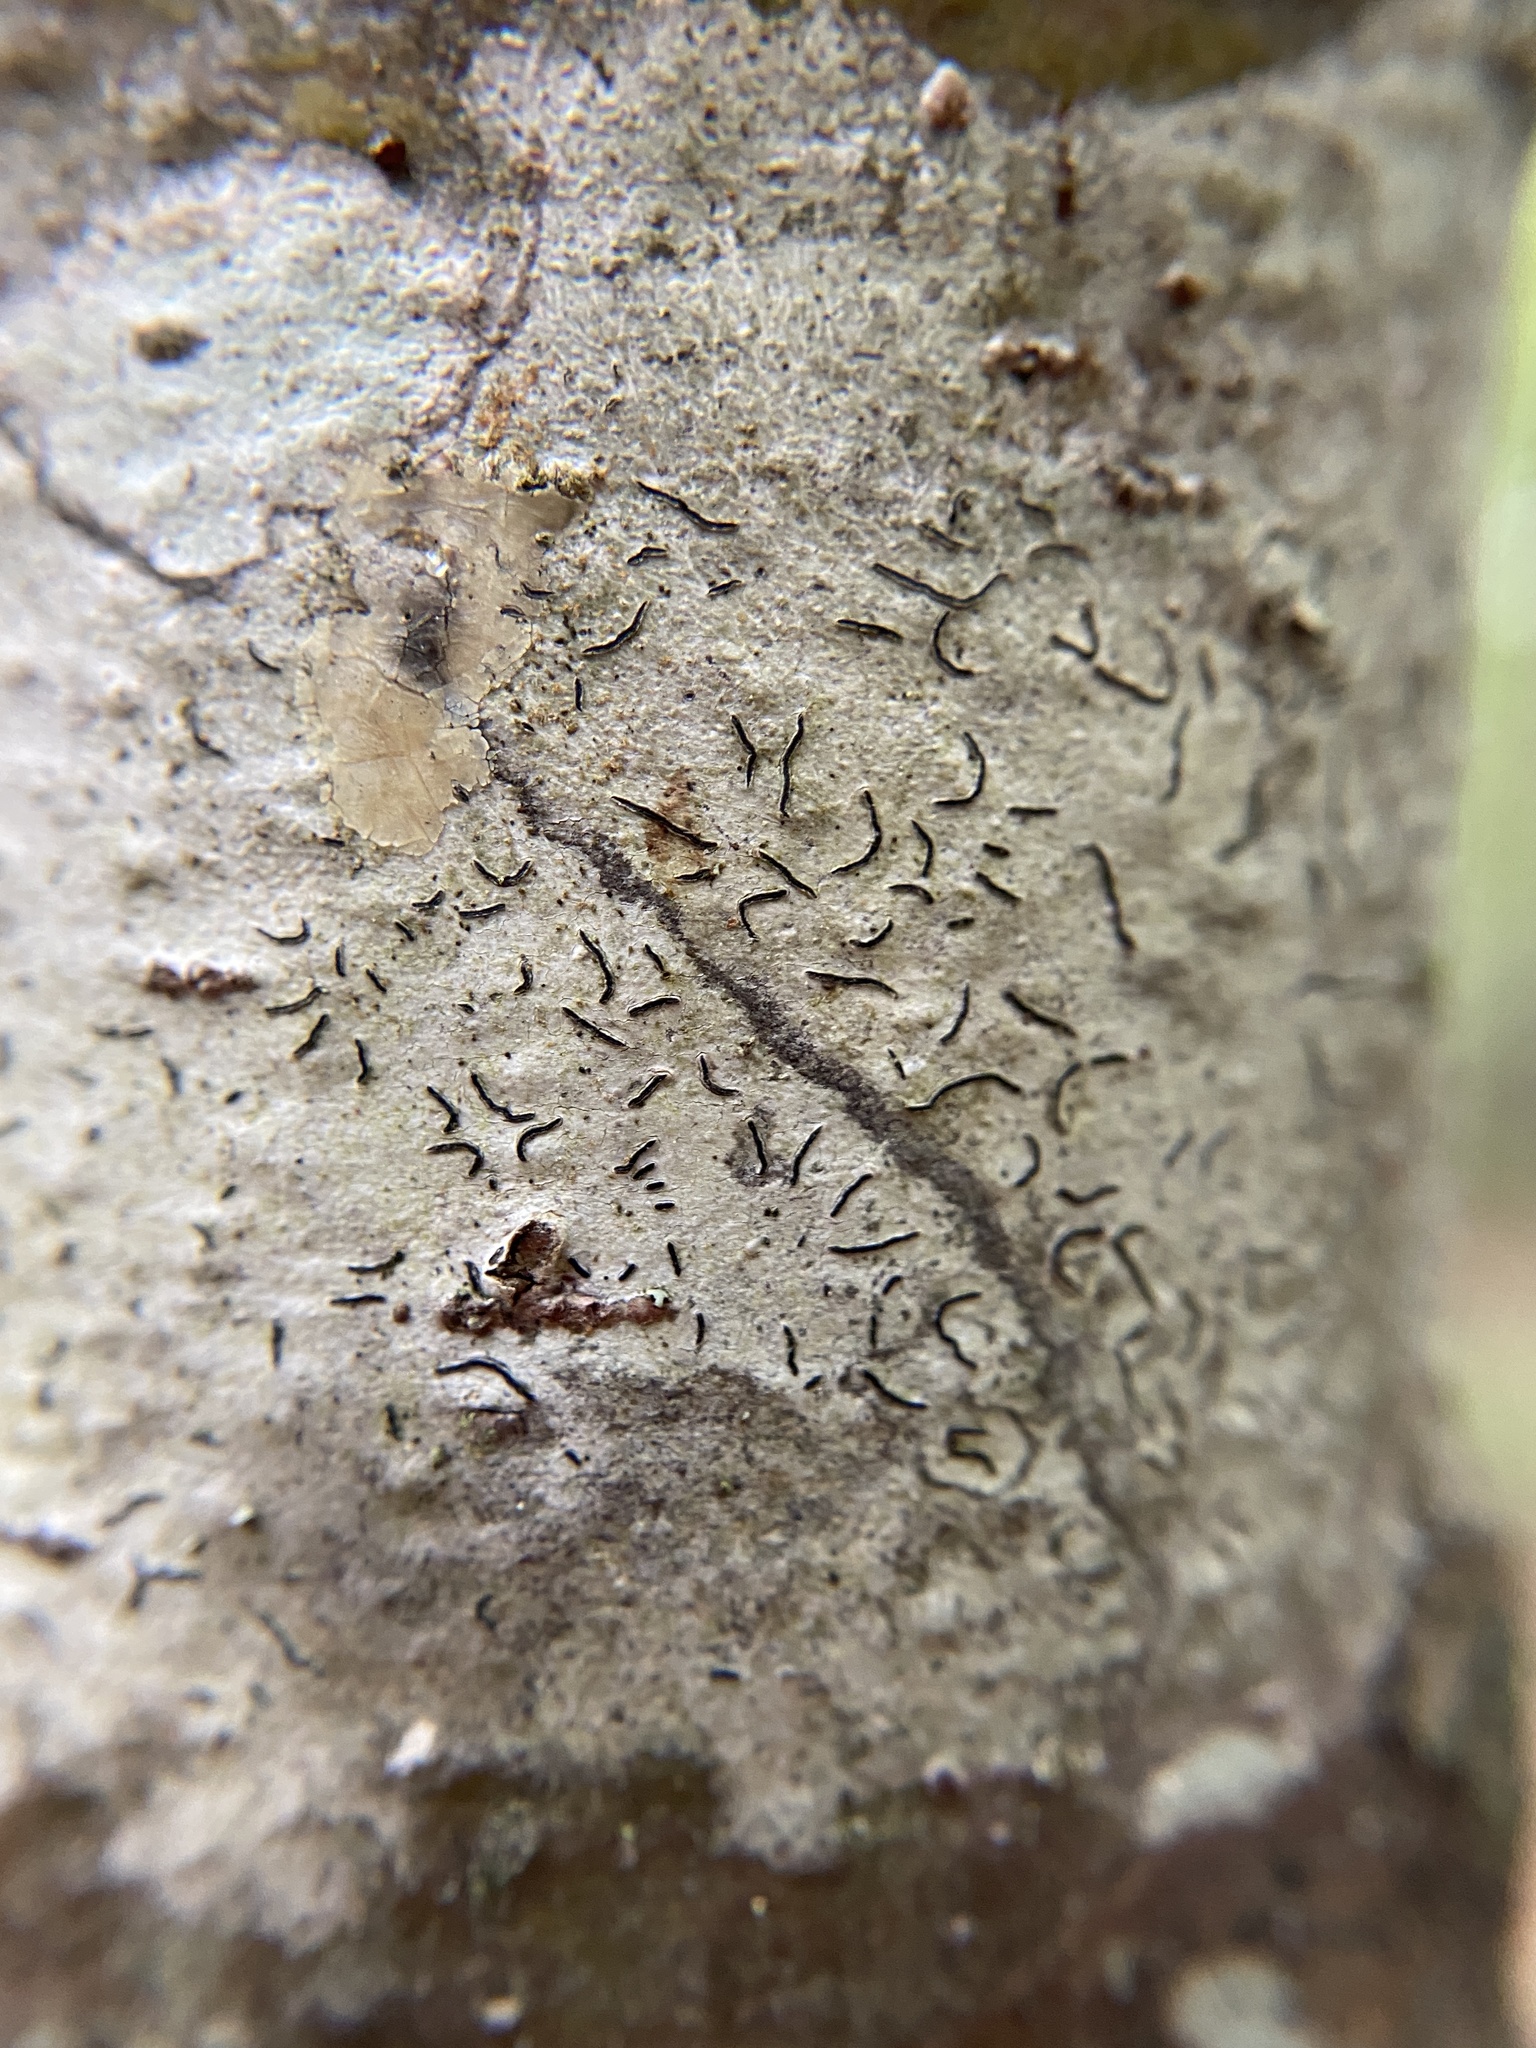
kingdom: Fungi
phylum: Ascomycota
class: Lecanoromycetes
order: Ostropales
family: Graphidaceae
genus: Graphis
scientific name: Graphis scripta
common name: Script lichen
